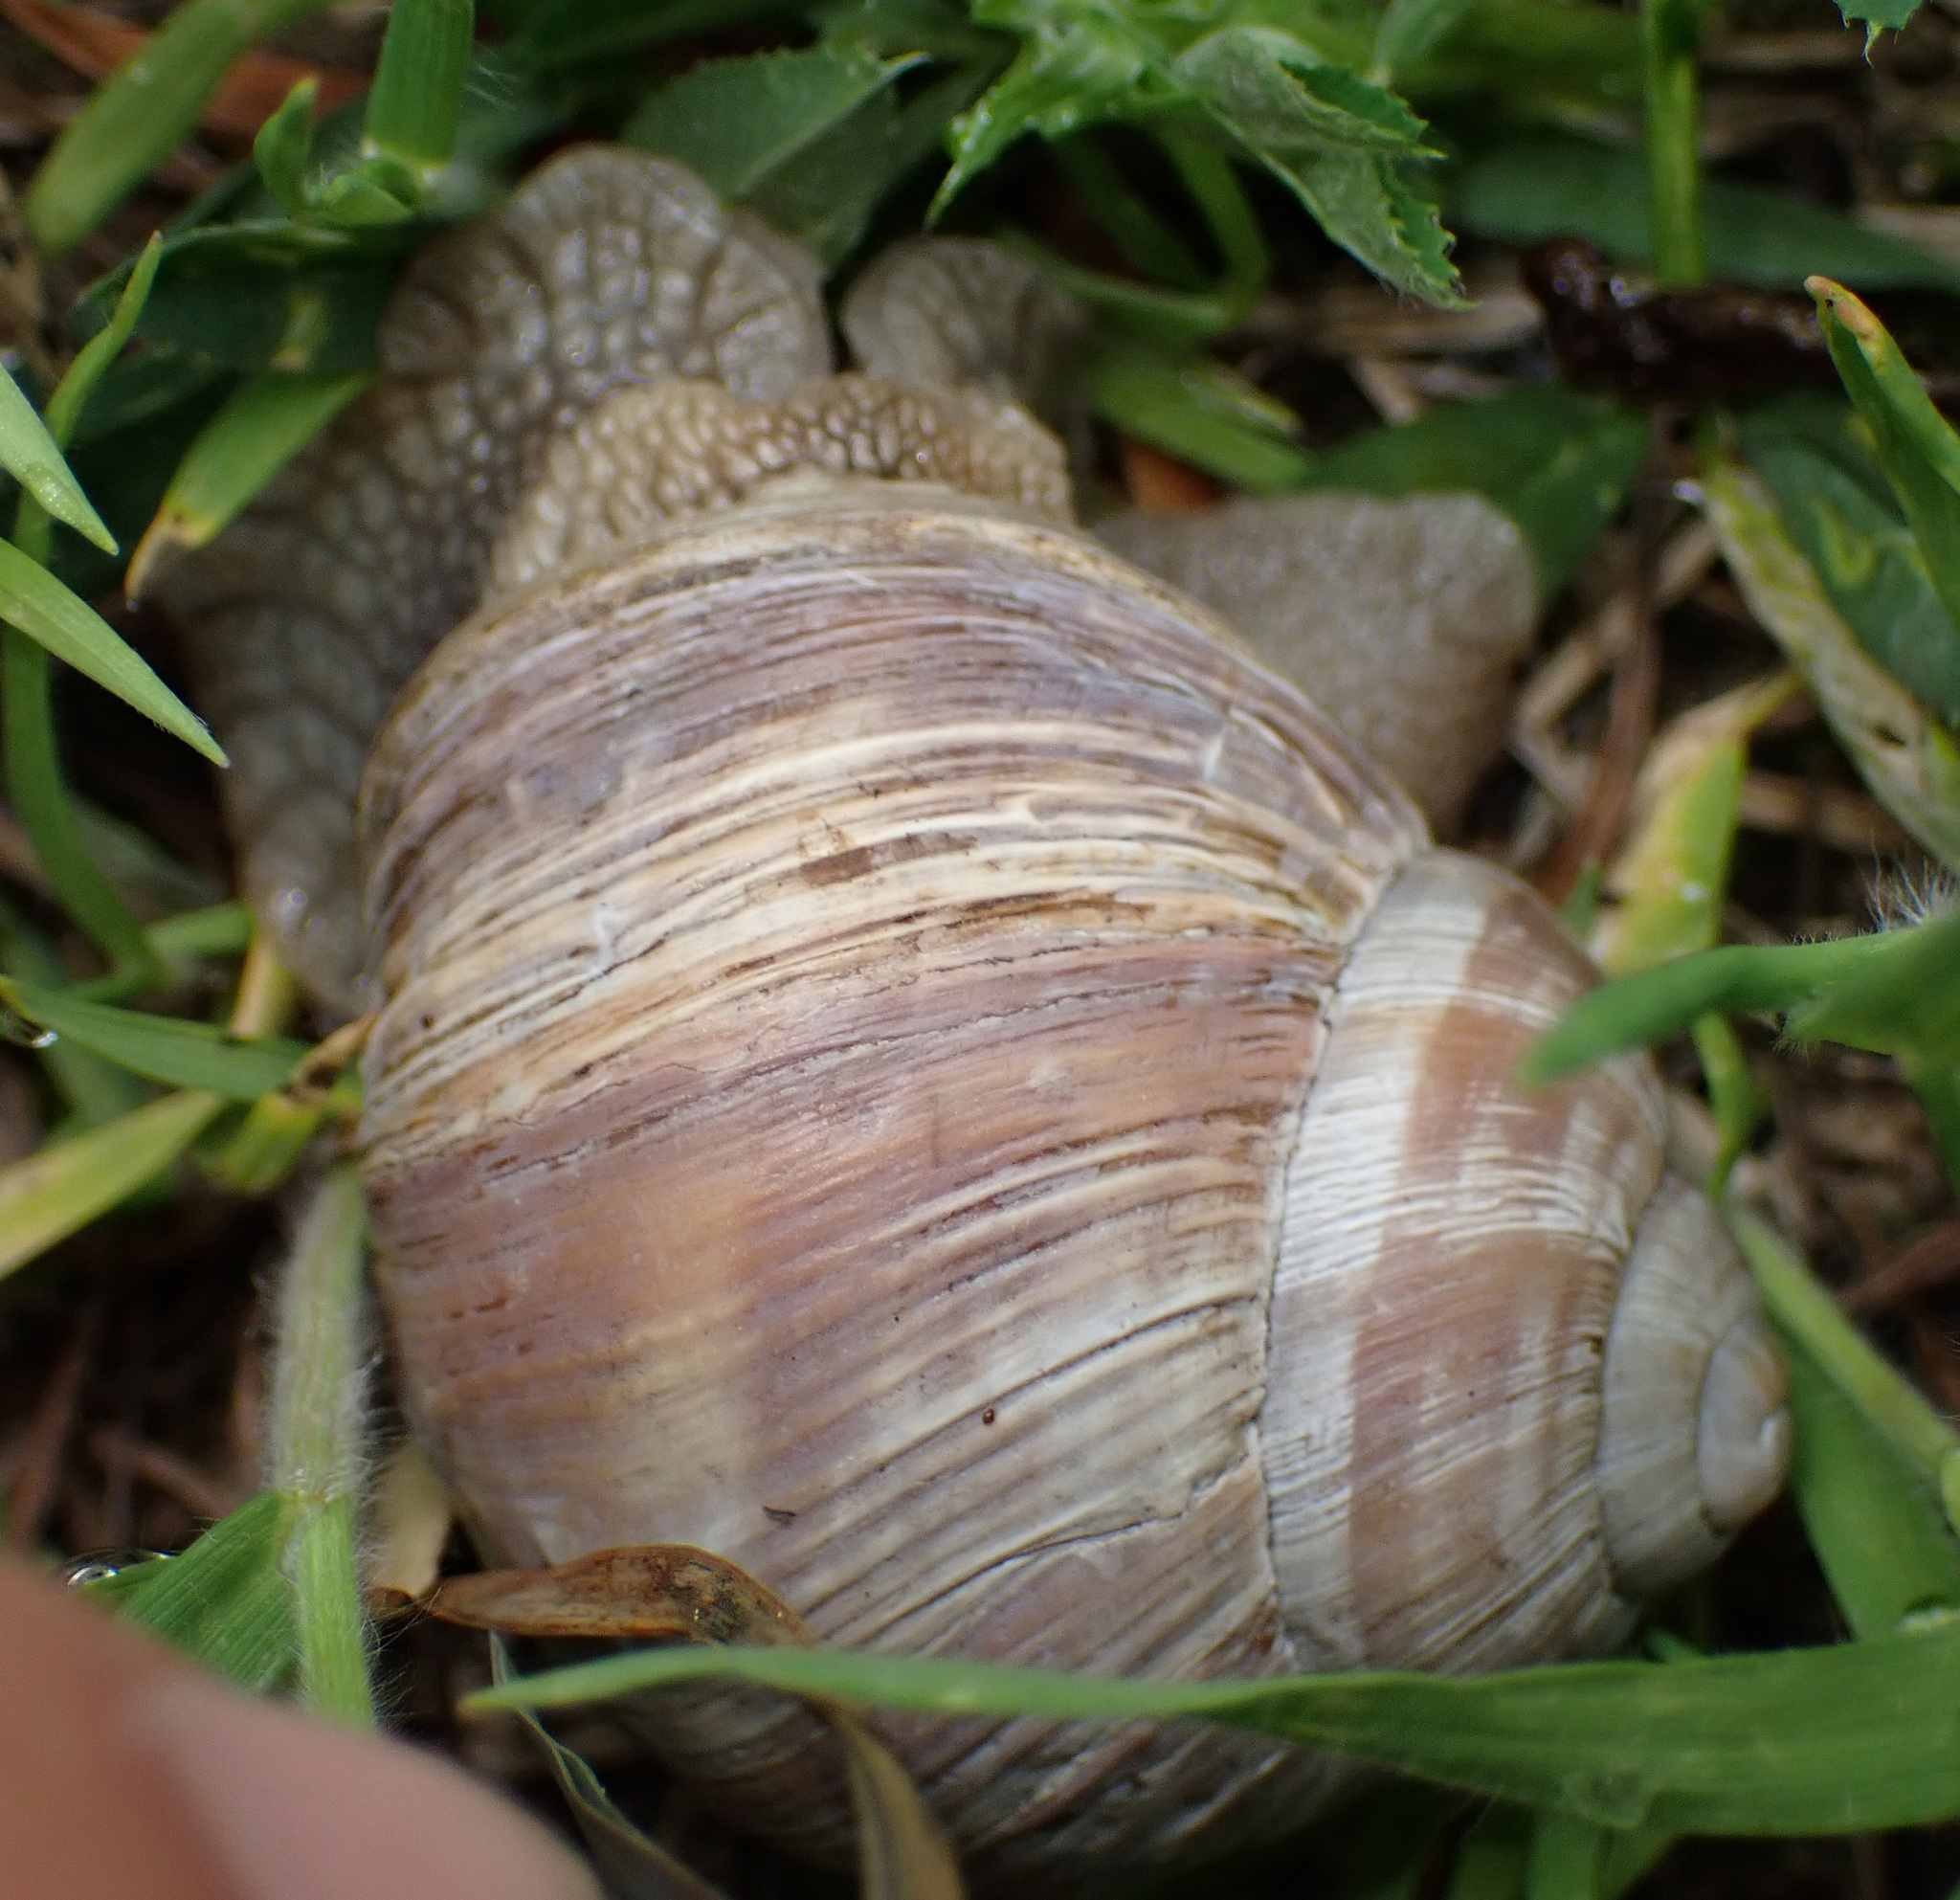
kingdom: Animalia
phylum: Mollusca
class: Gastropoda
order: Stylommatophora
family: Helicidae
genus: Helix
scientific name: Helix pomatia
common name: Roman snail
